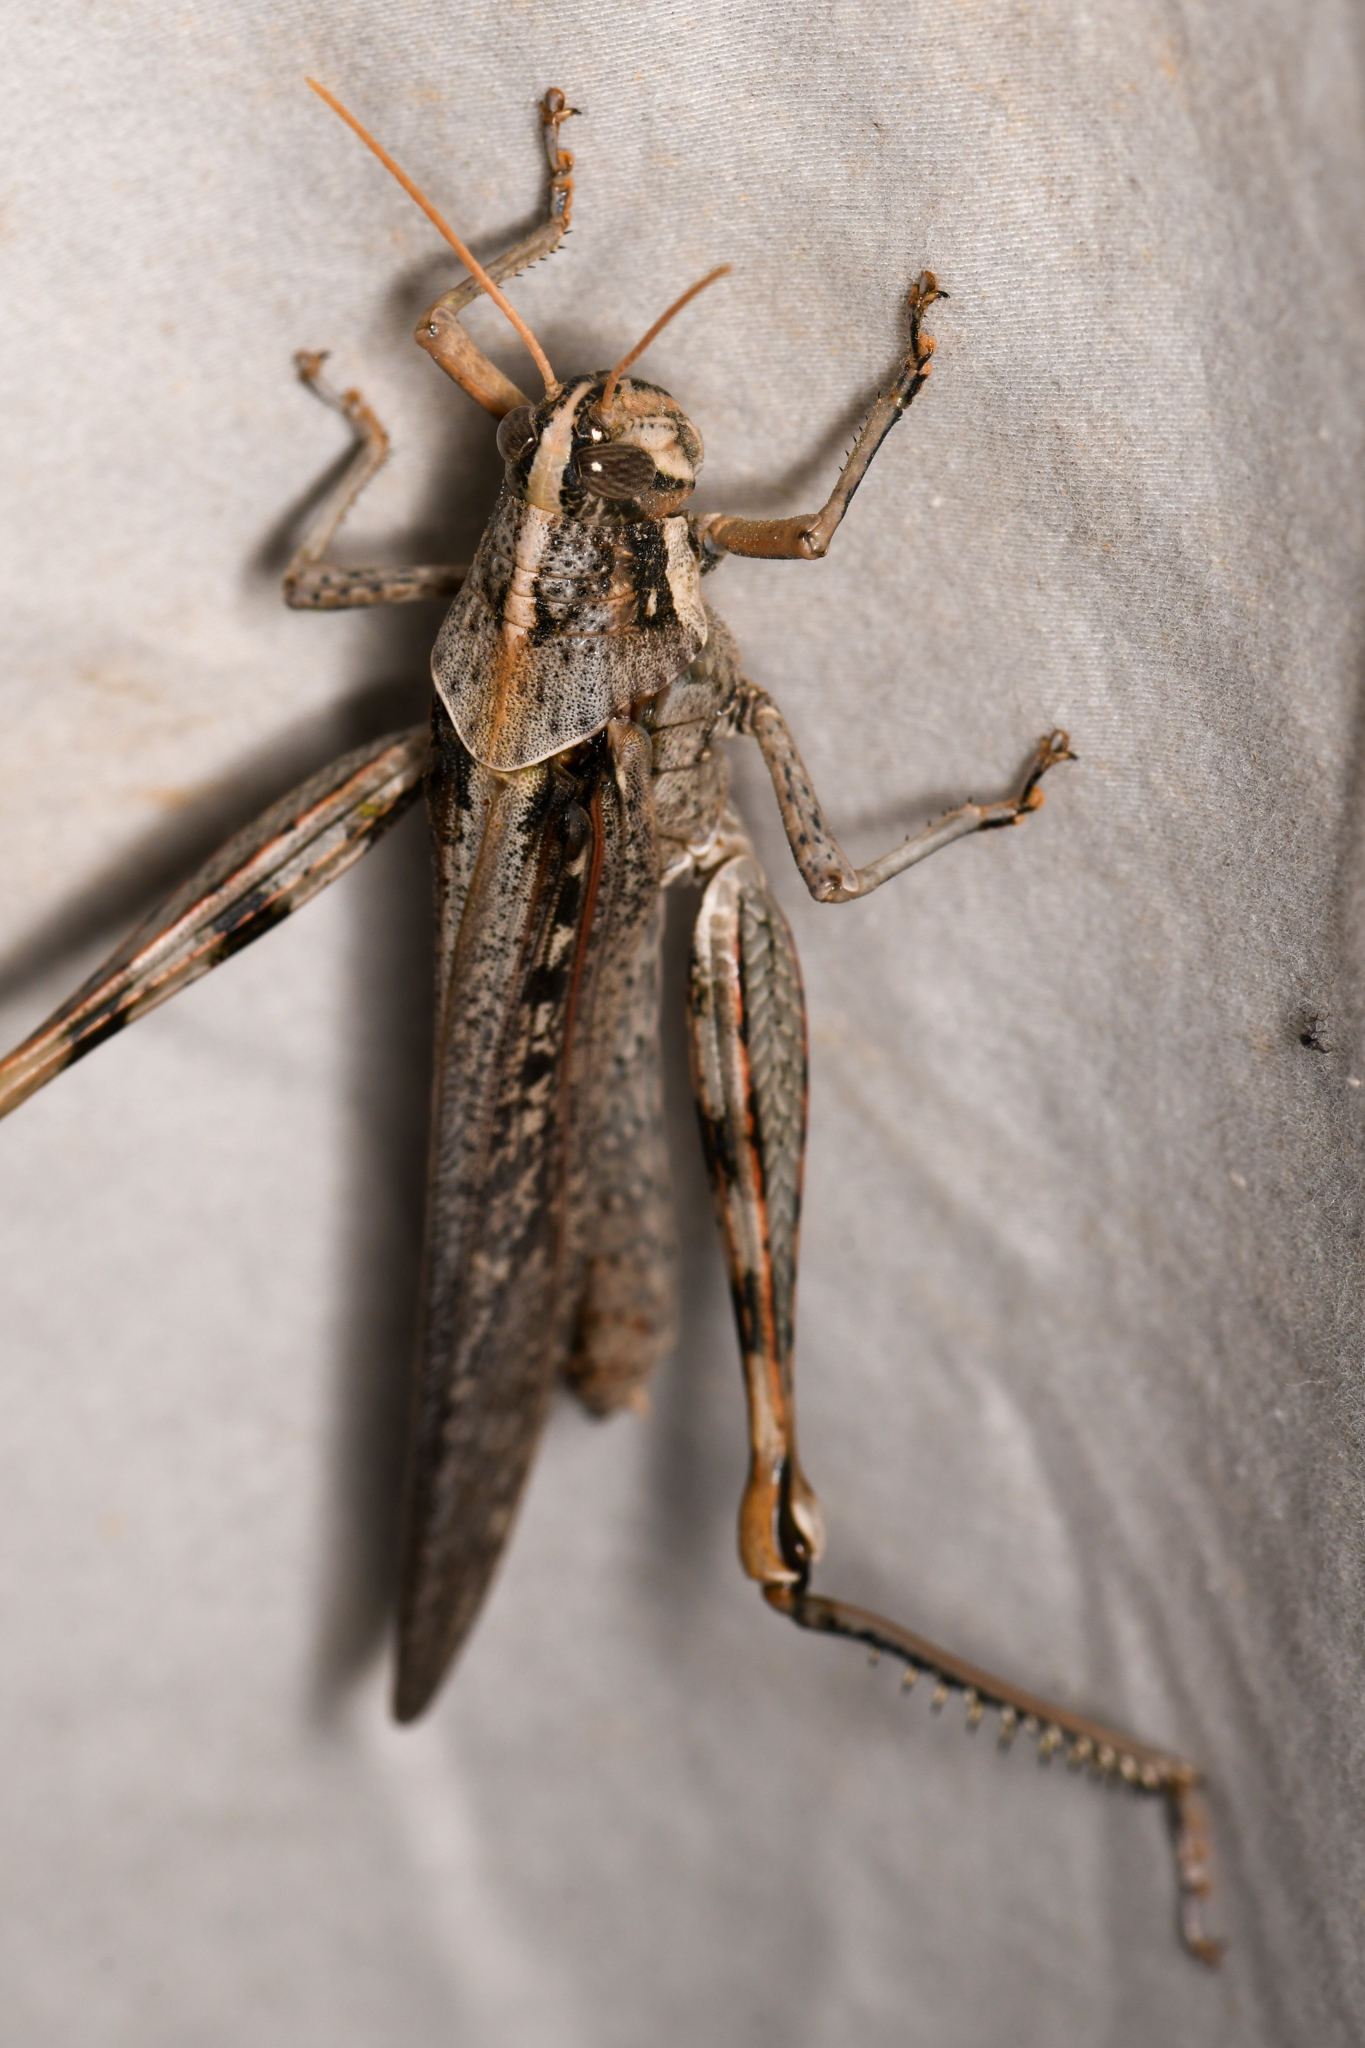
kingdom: Animalia
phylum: Arthropoda
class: Insecta
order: Orthoptera
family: Acrididae
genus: Schistocerca
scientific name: Schistocerca nitens
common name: Vagrant grasshopper
